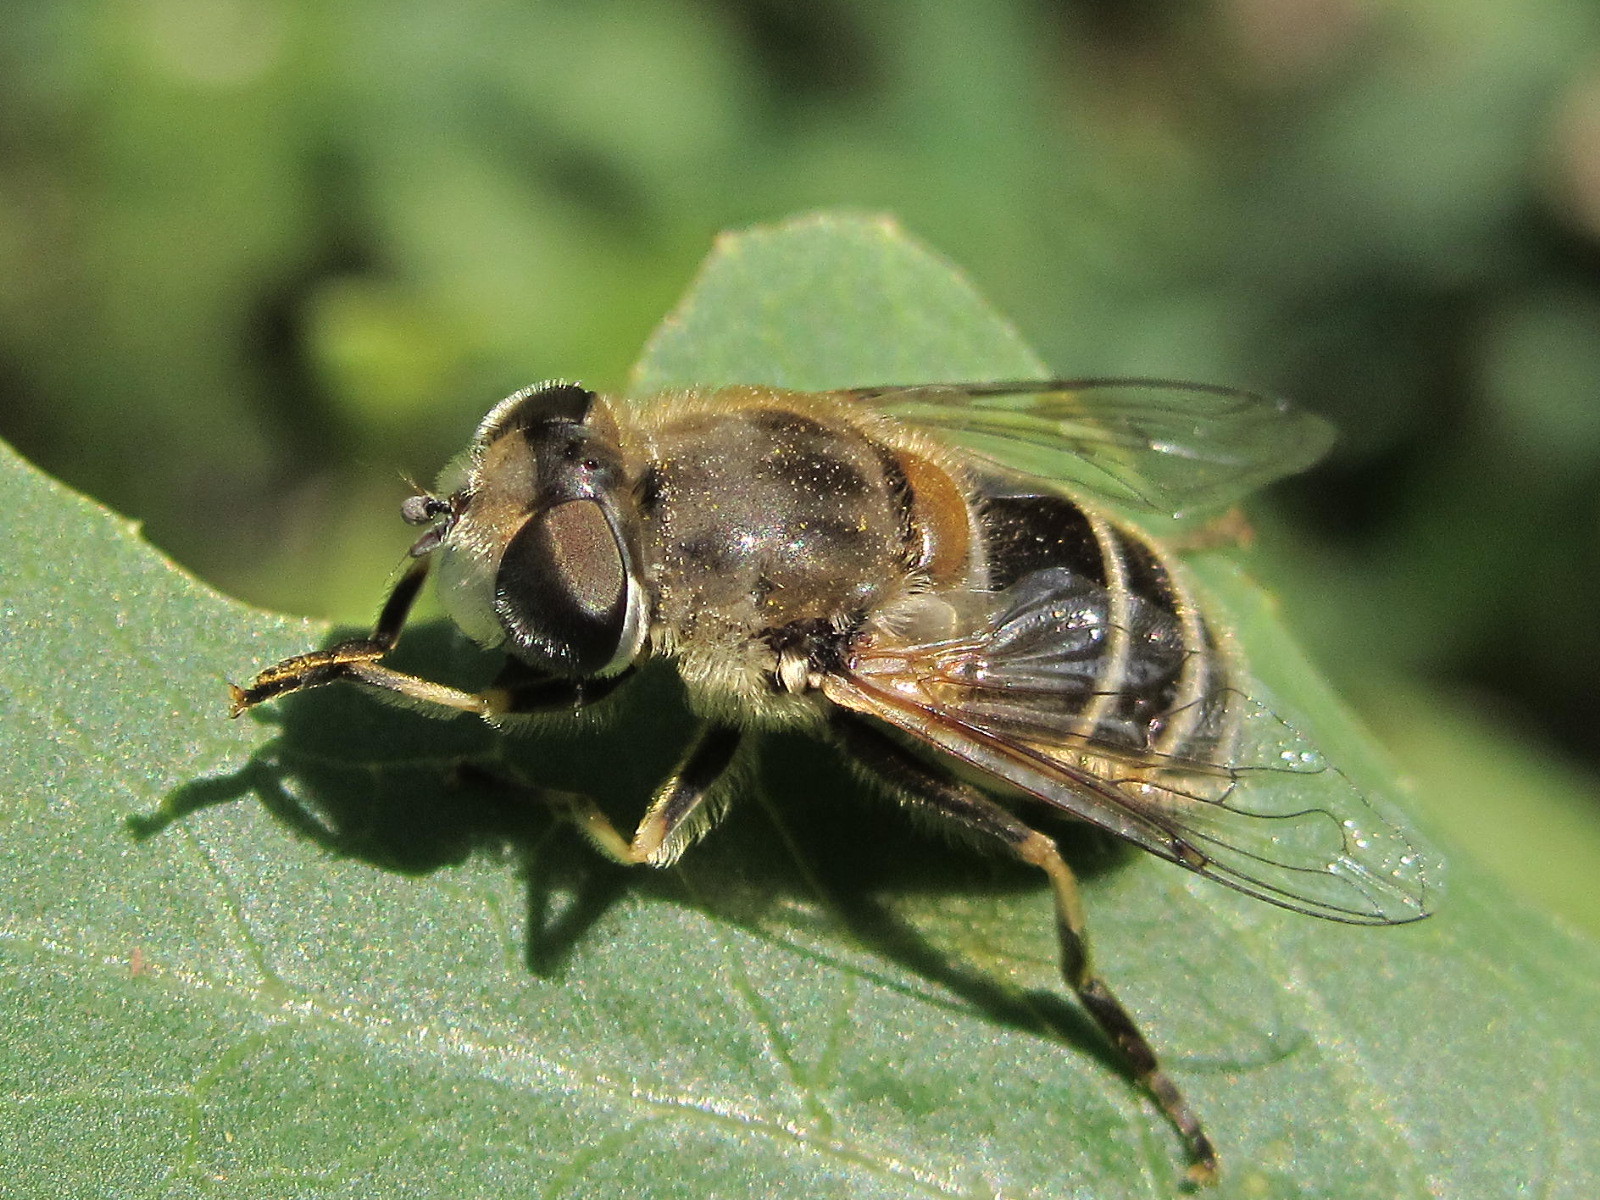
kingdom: Animalia
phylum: Arthropoda
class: Insecta
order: Diptera
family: Syrphidae
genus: Eristalis
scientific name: Eristalis arbustorum
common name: Hover fly
